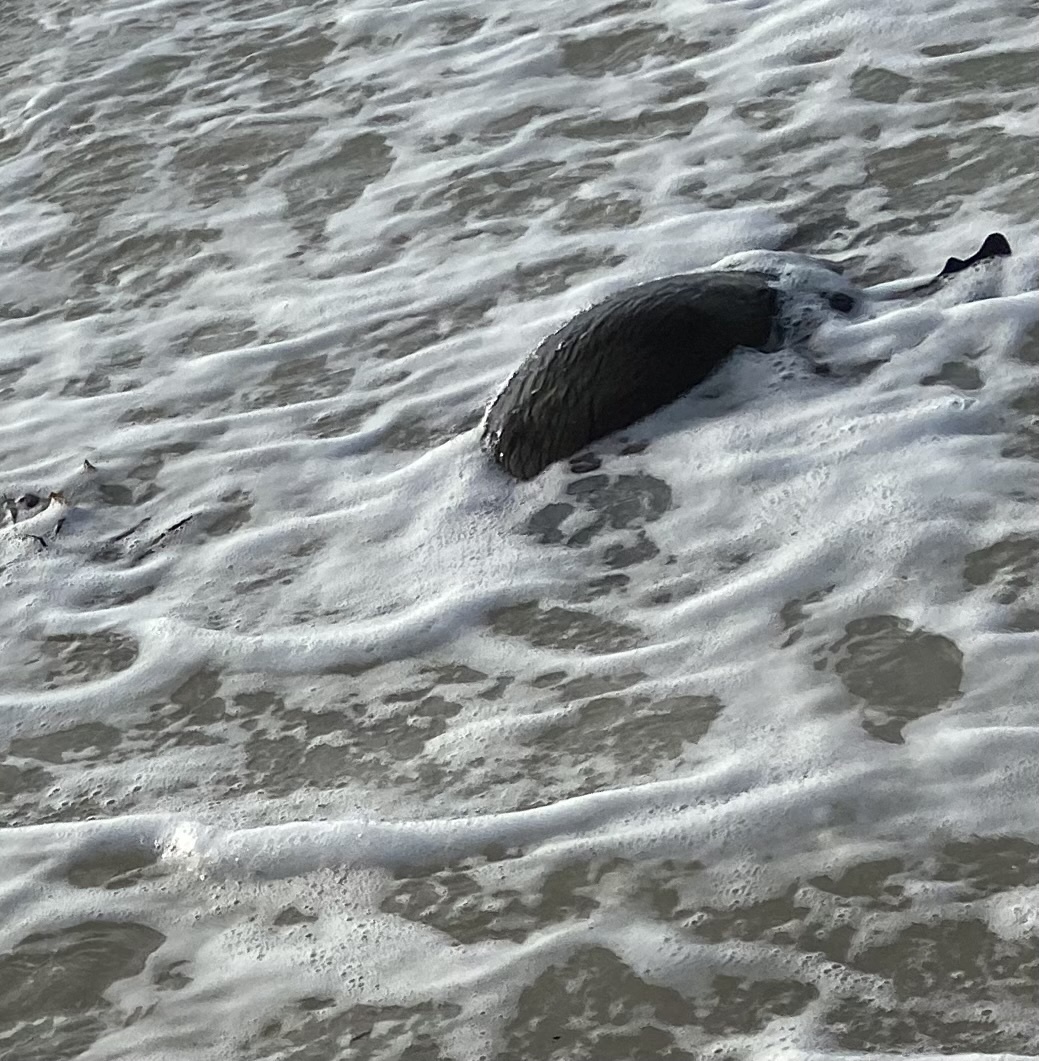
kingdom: Animalia
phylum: Chordata
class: Mammalia
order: Carnivora
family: Otariidae
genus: Arctocephalus
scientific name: Arctocephalus pusillus
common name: Brown fur seal
